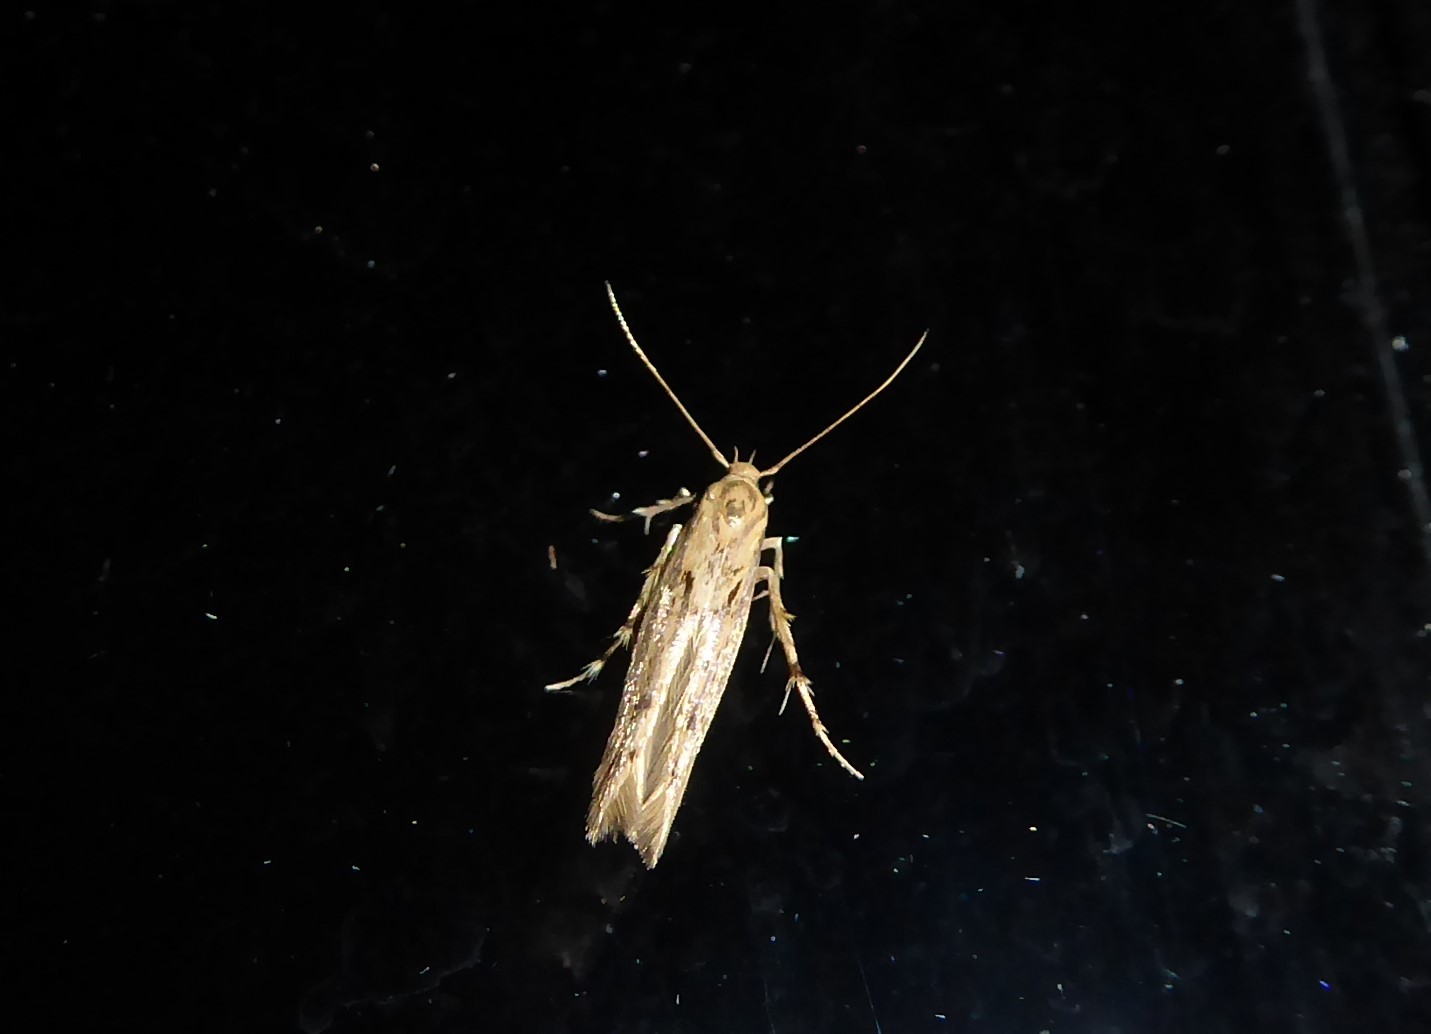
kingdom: Animalia
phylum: Arthropoda
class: Insecta
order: Lepidoptera
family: Stathmopodidae
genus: Stathmopoda
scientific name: Stathmopoda plumbiflua
